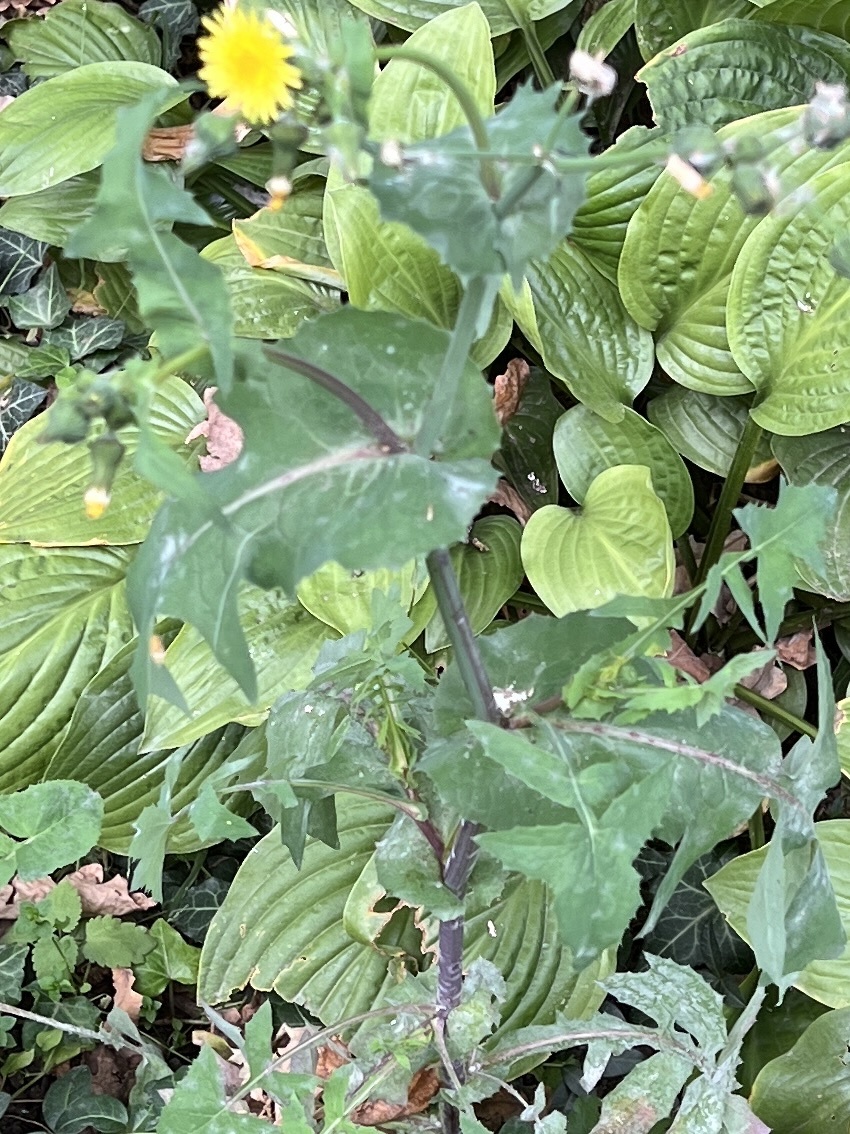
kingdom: Plantae
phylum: Tracheophyta
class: Magnoliopsida
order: Asterales
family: Asteraceae
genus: Sonchus
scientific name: Sonchus oleraceus
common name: Common sowthistle
